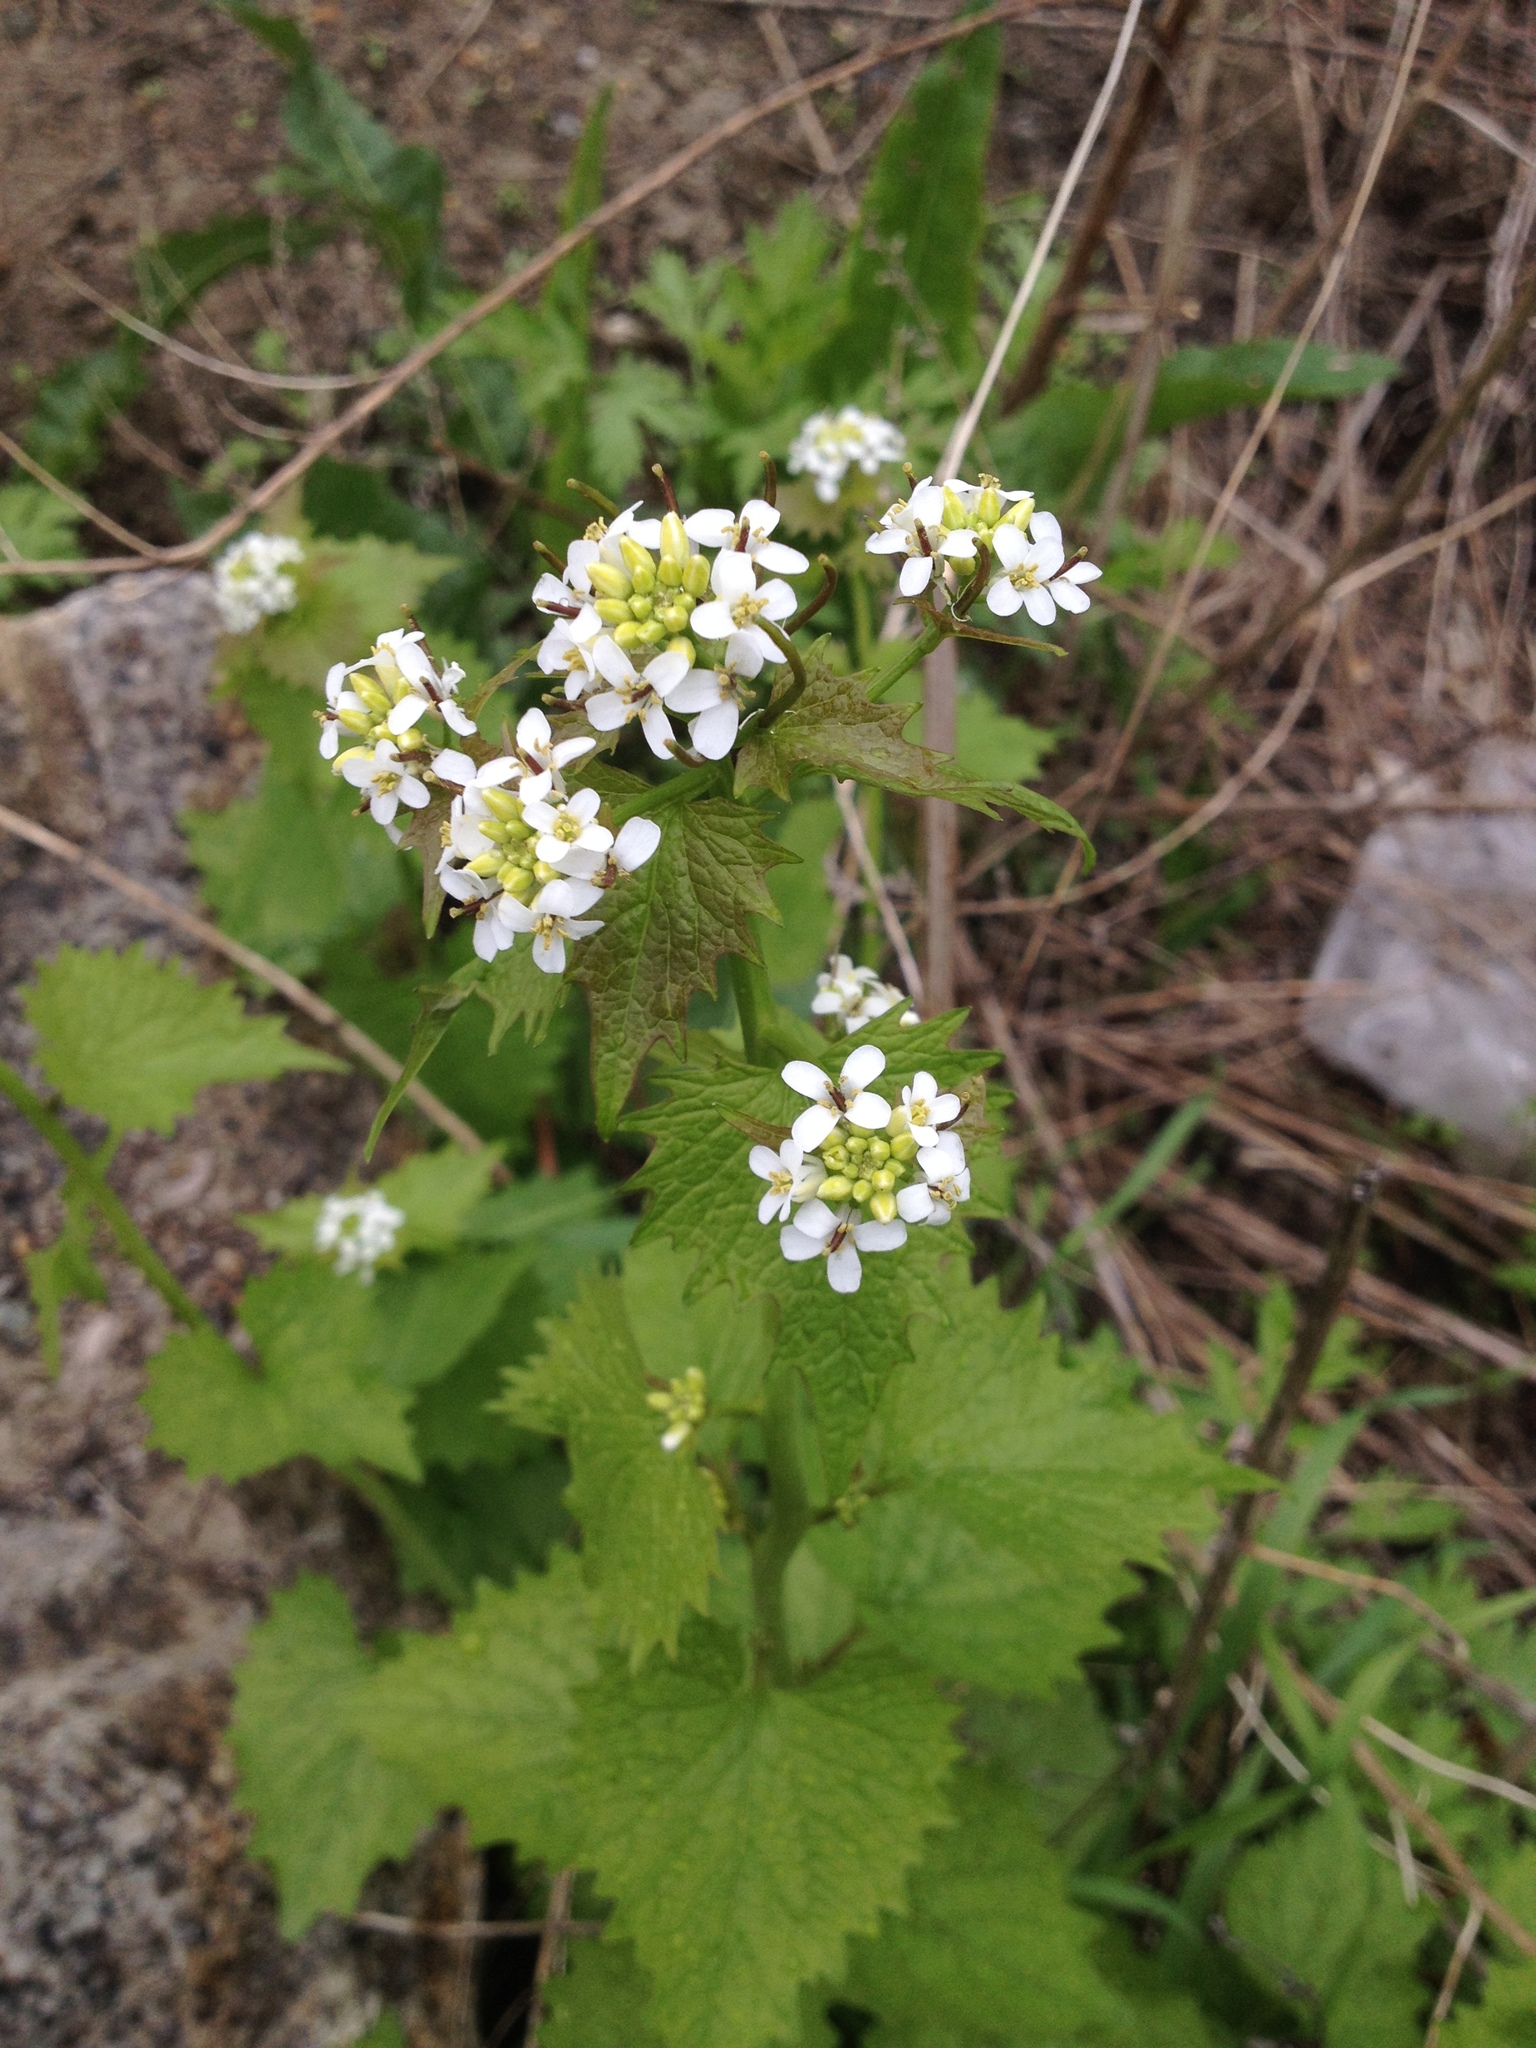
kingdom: Plantae
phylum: Tracheophyta
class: Magnoliopsida
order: Brassicales
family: Brassicaceae
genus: Alliaria
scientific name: Alliaria petiolata
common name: Garlic mustard
